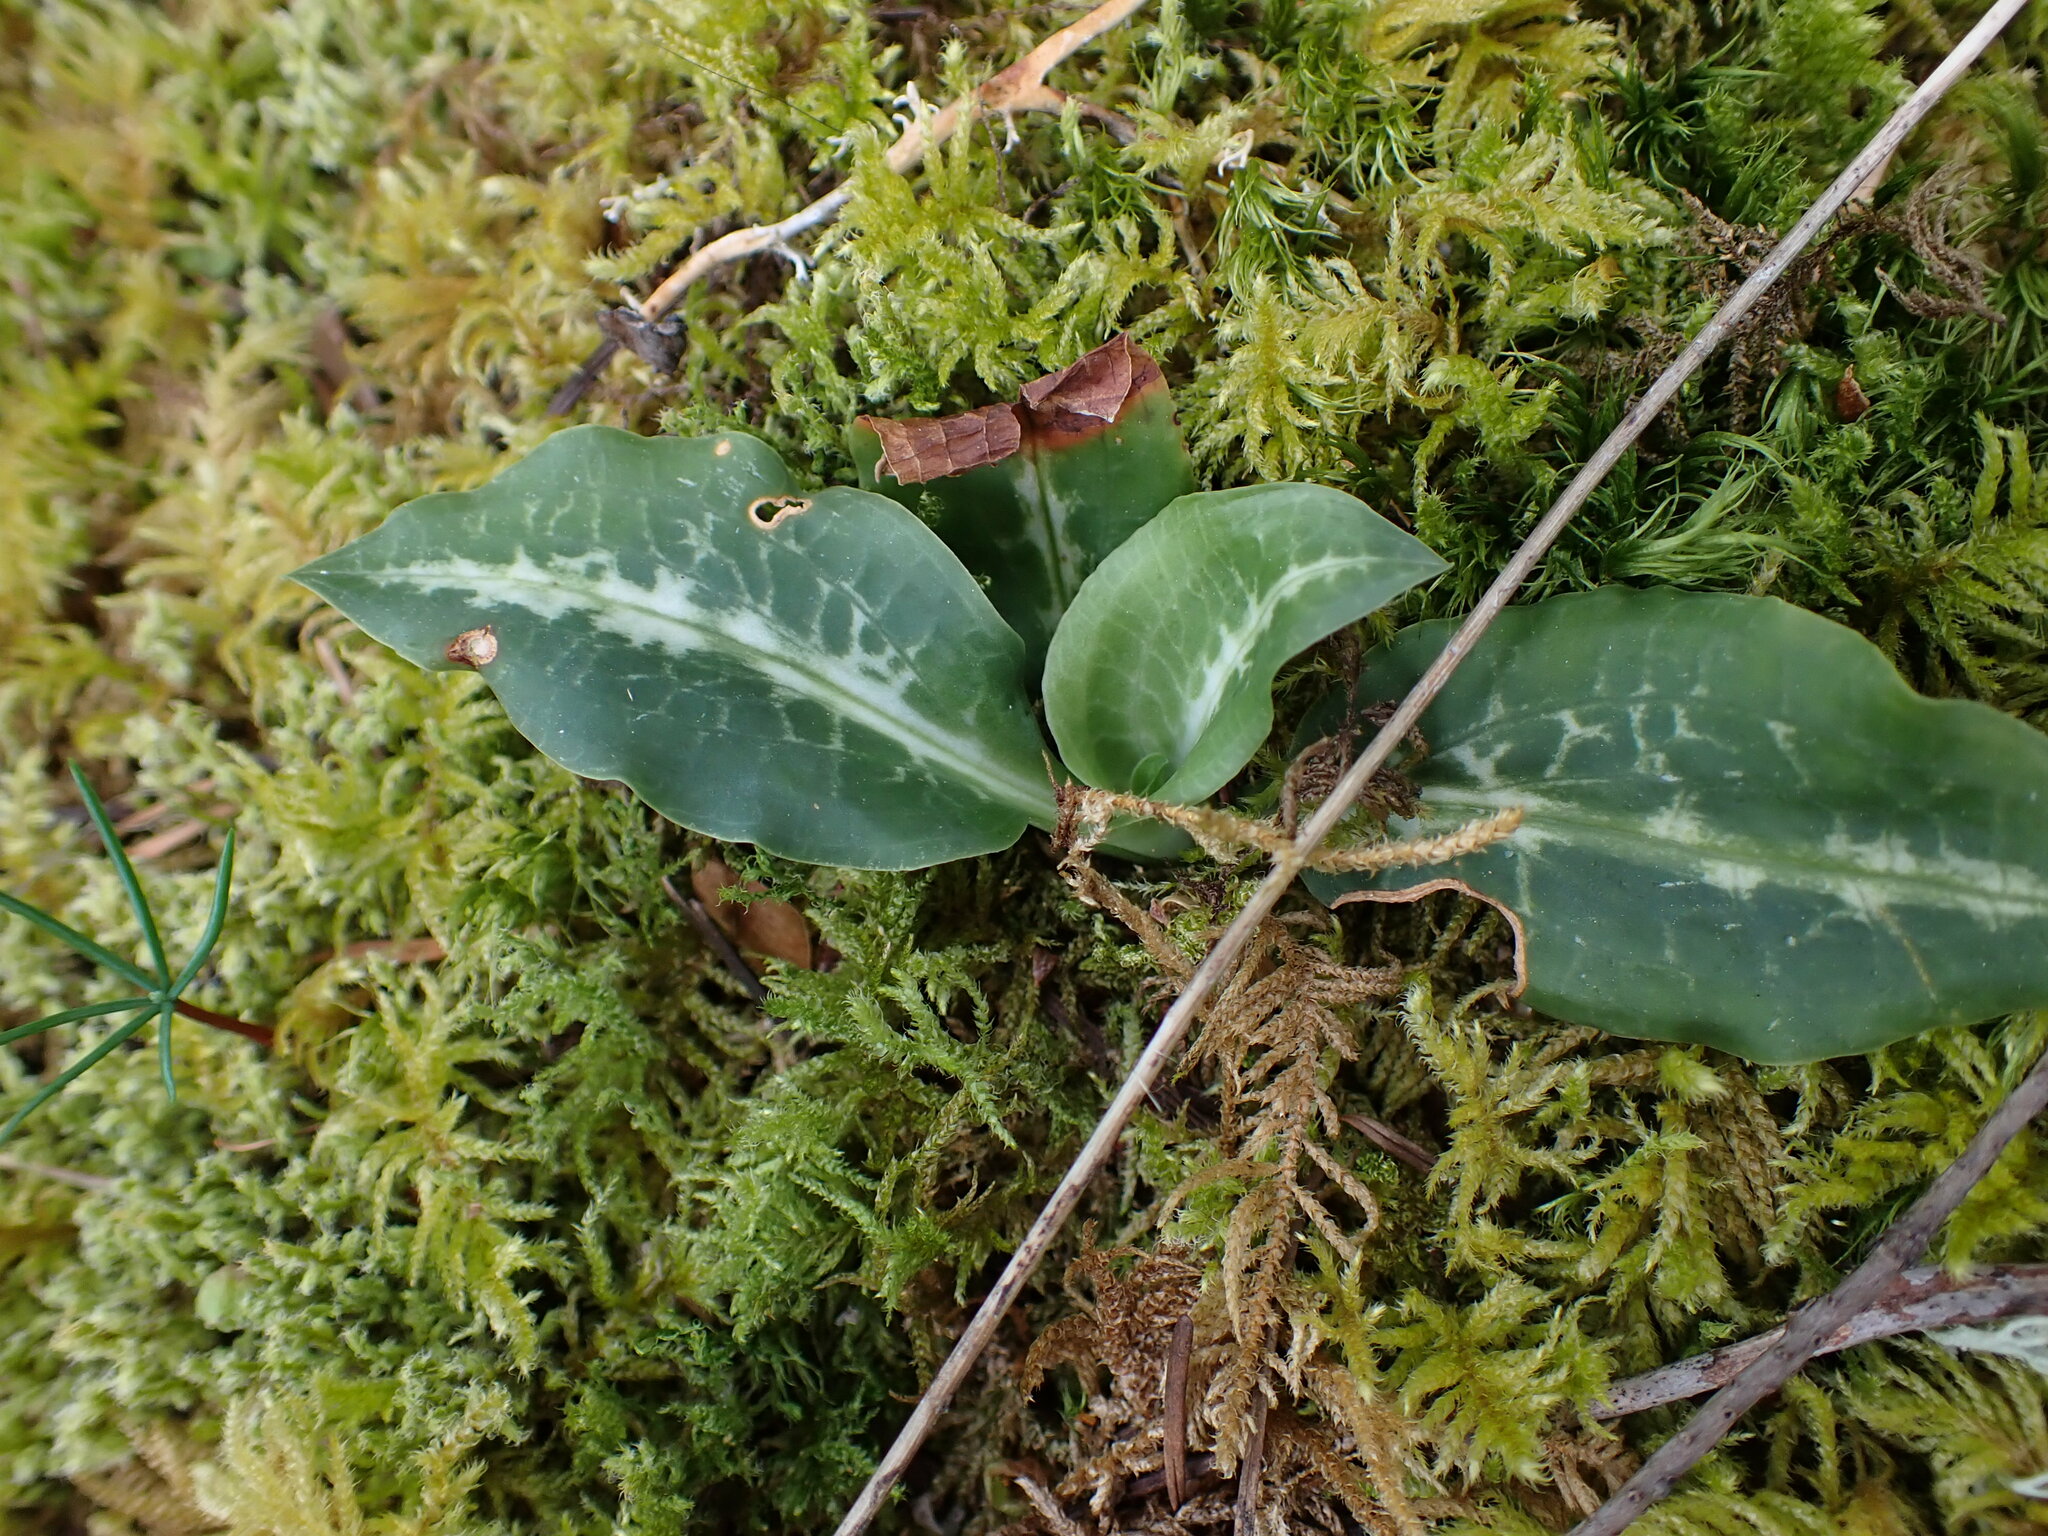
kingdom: Plantae
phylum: Tracheophyta
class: Liliopsida
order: Asparagales
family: Orchidaceae
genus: Goodyera
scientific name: Goodyera oblongifolia
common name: Giant rattlesnake-plantain
